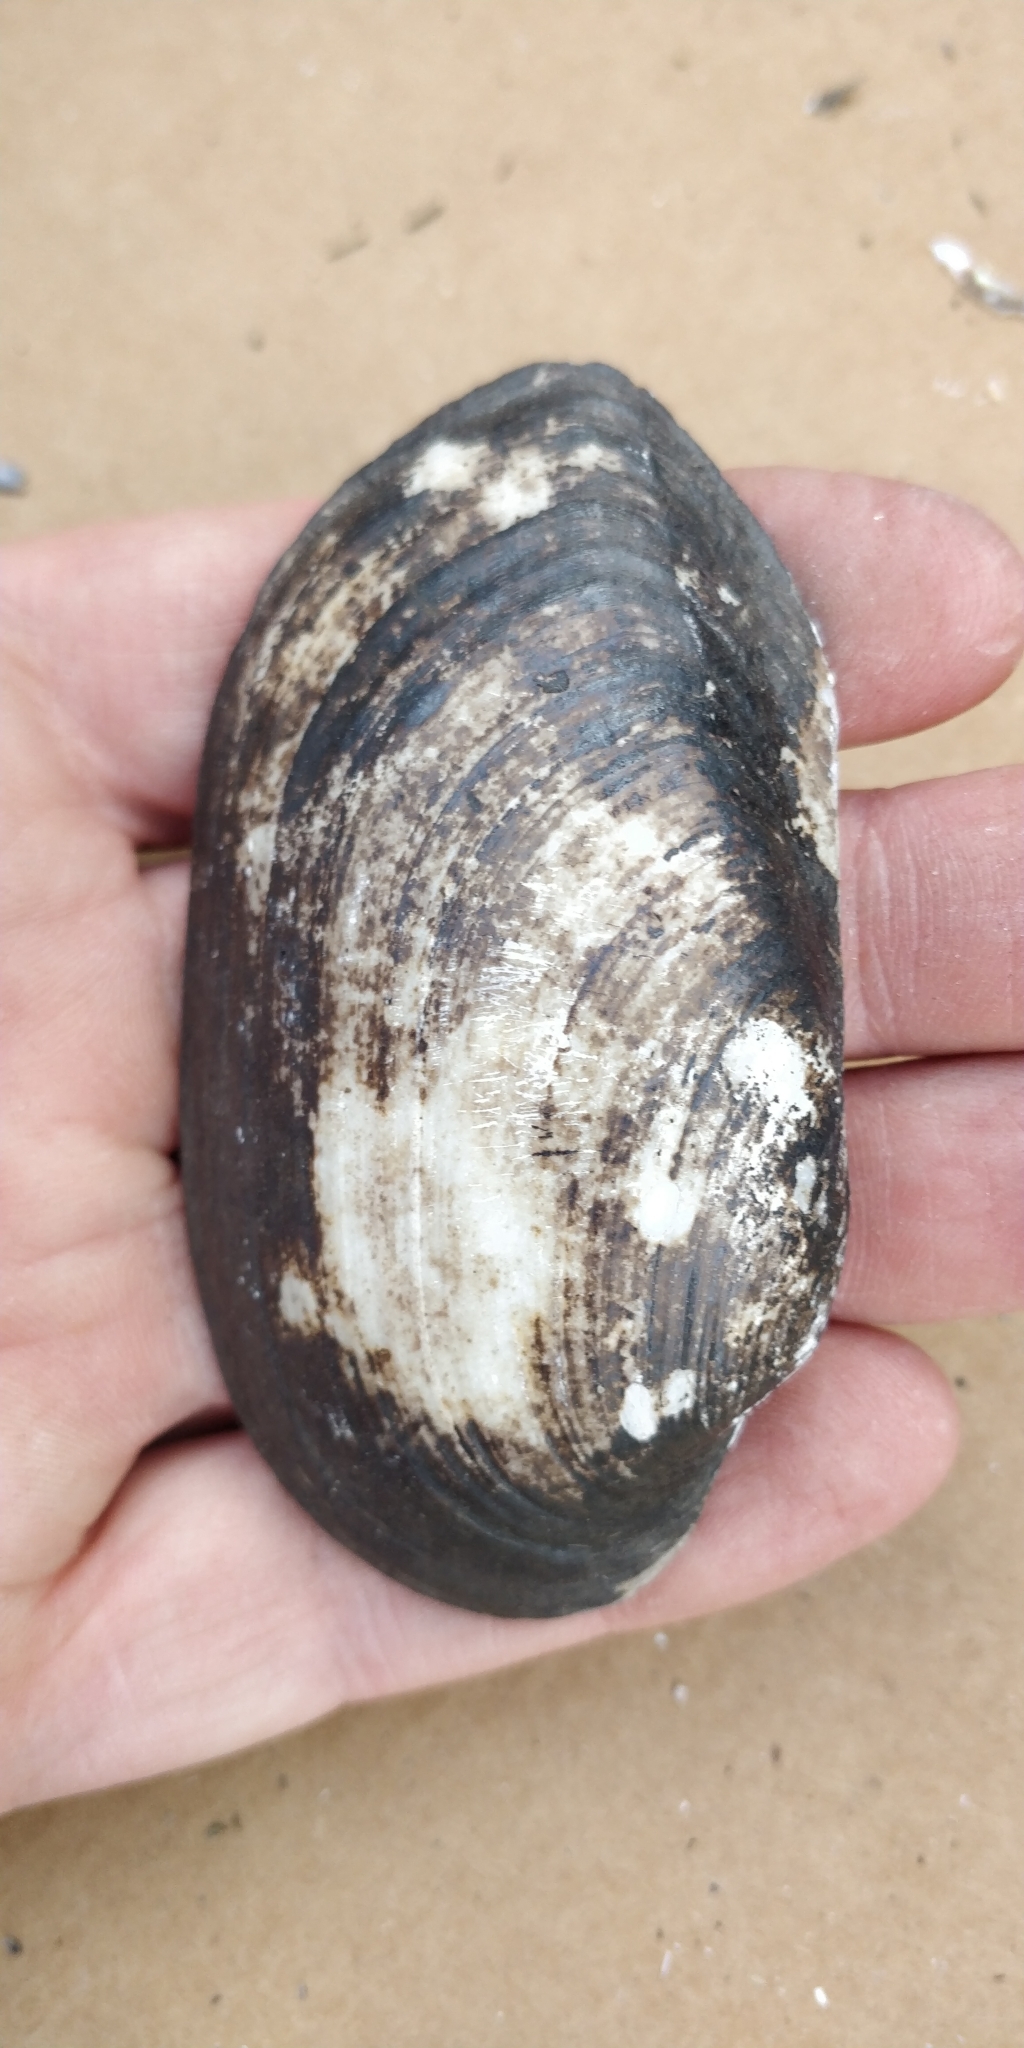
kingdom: Animalia
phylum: Mollusca
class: Bivalvia
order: Unionida
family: Unionidae
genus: Lampsilis
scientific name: Lampsilis siliquoidea
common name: Fatmucket
